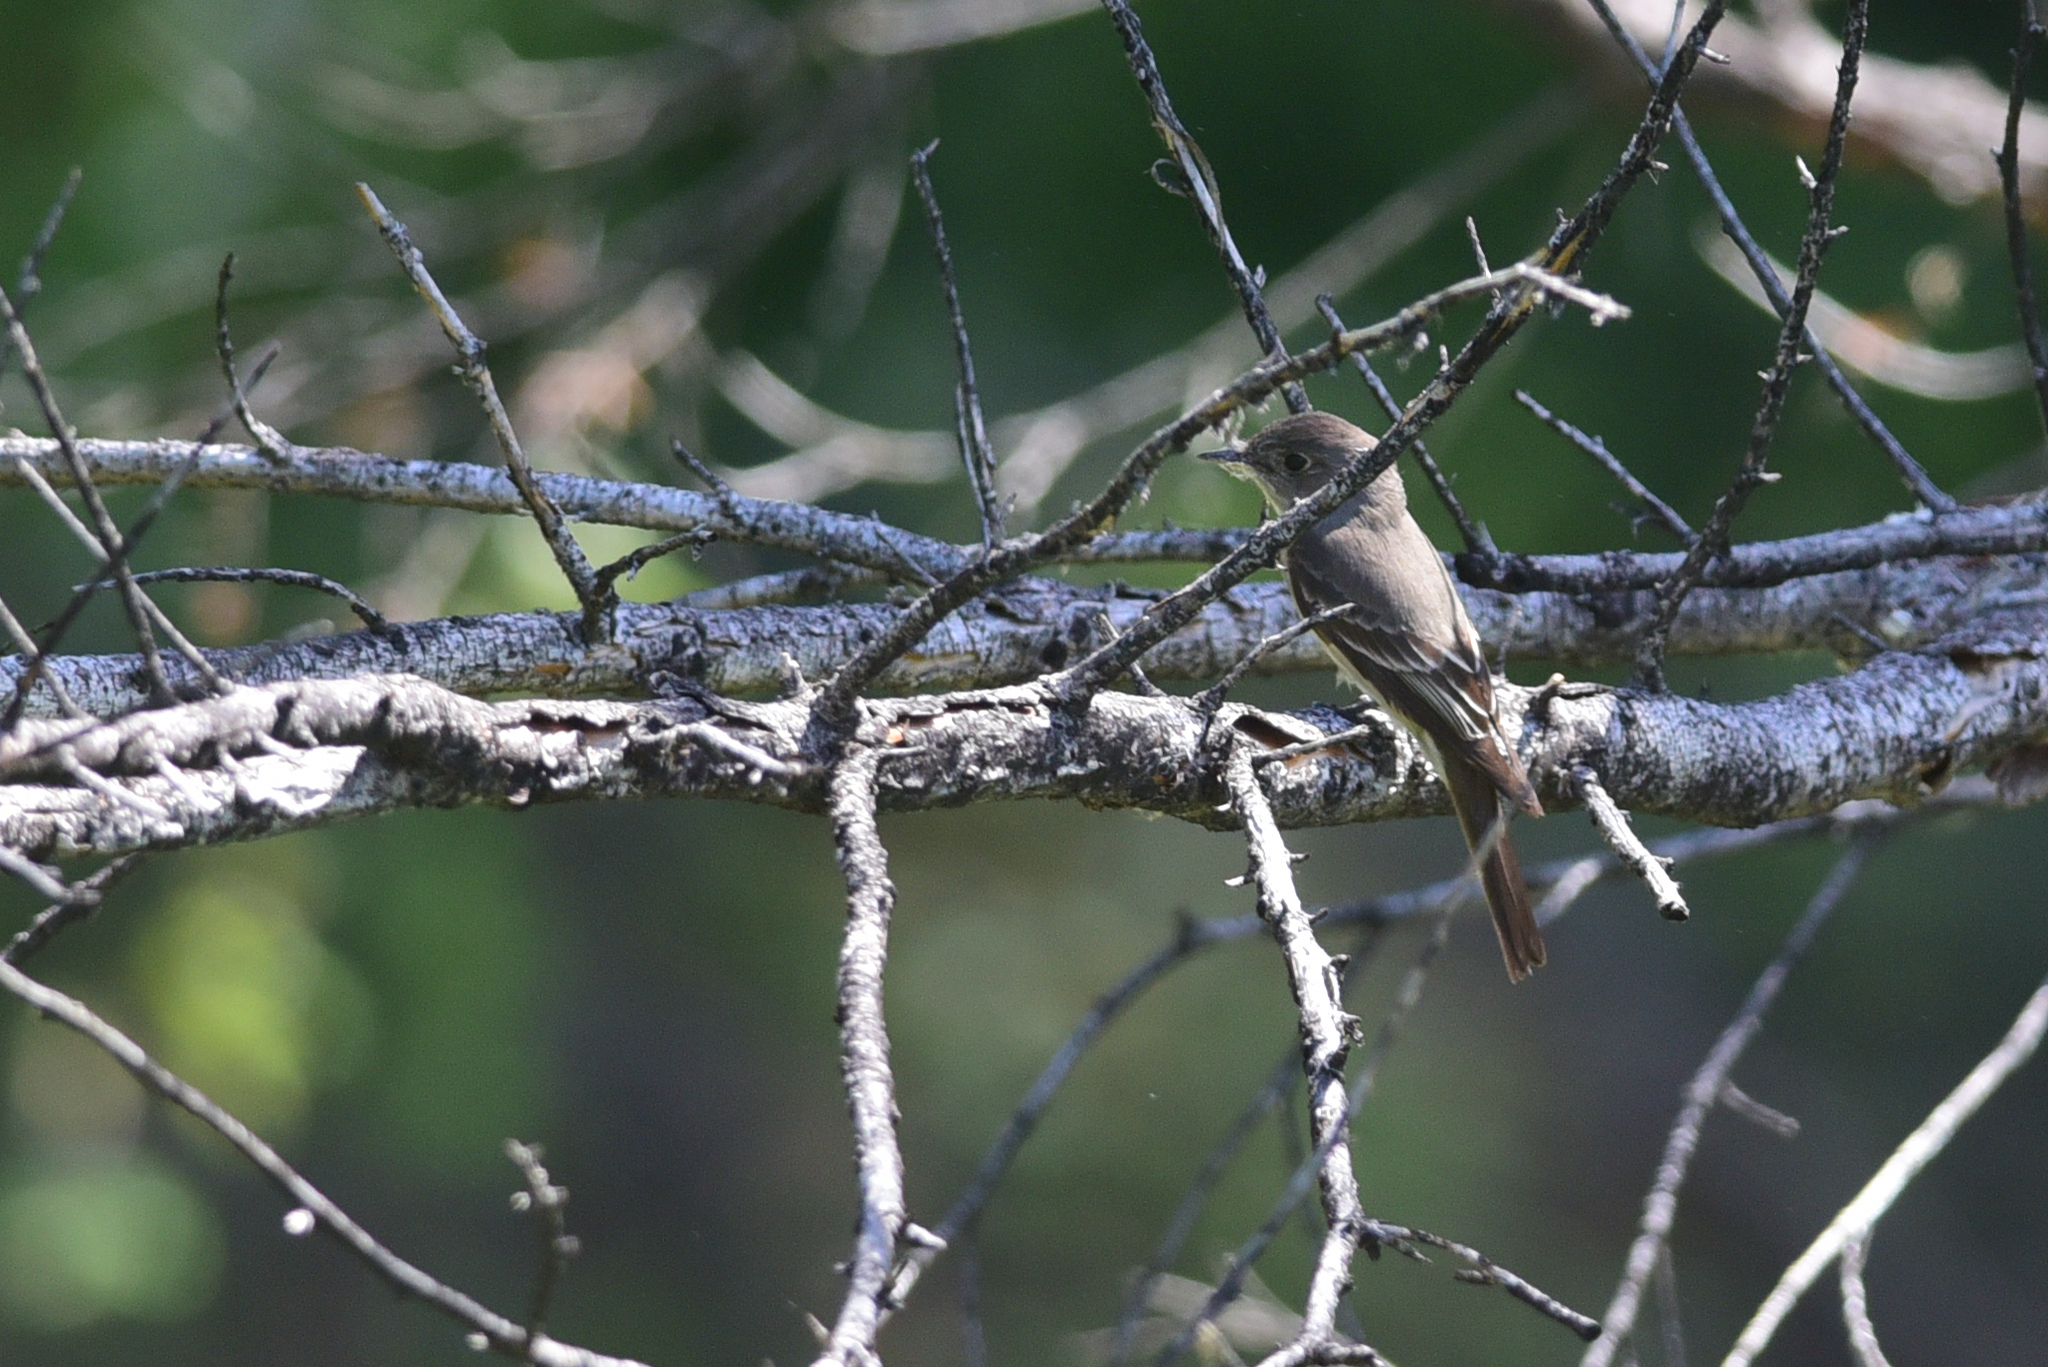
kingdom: Animalia
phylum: Chordata
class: Aves
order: Passeriformes
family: Tyrannidae
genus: Contopus
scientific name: Contopus sordidulus
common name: Western wood-pewee
